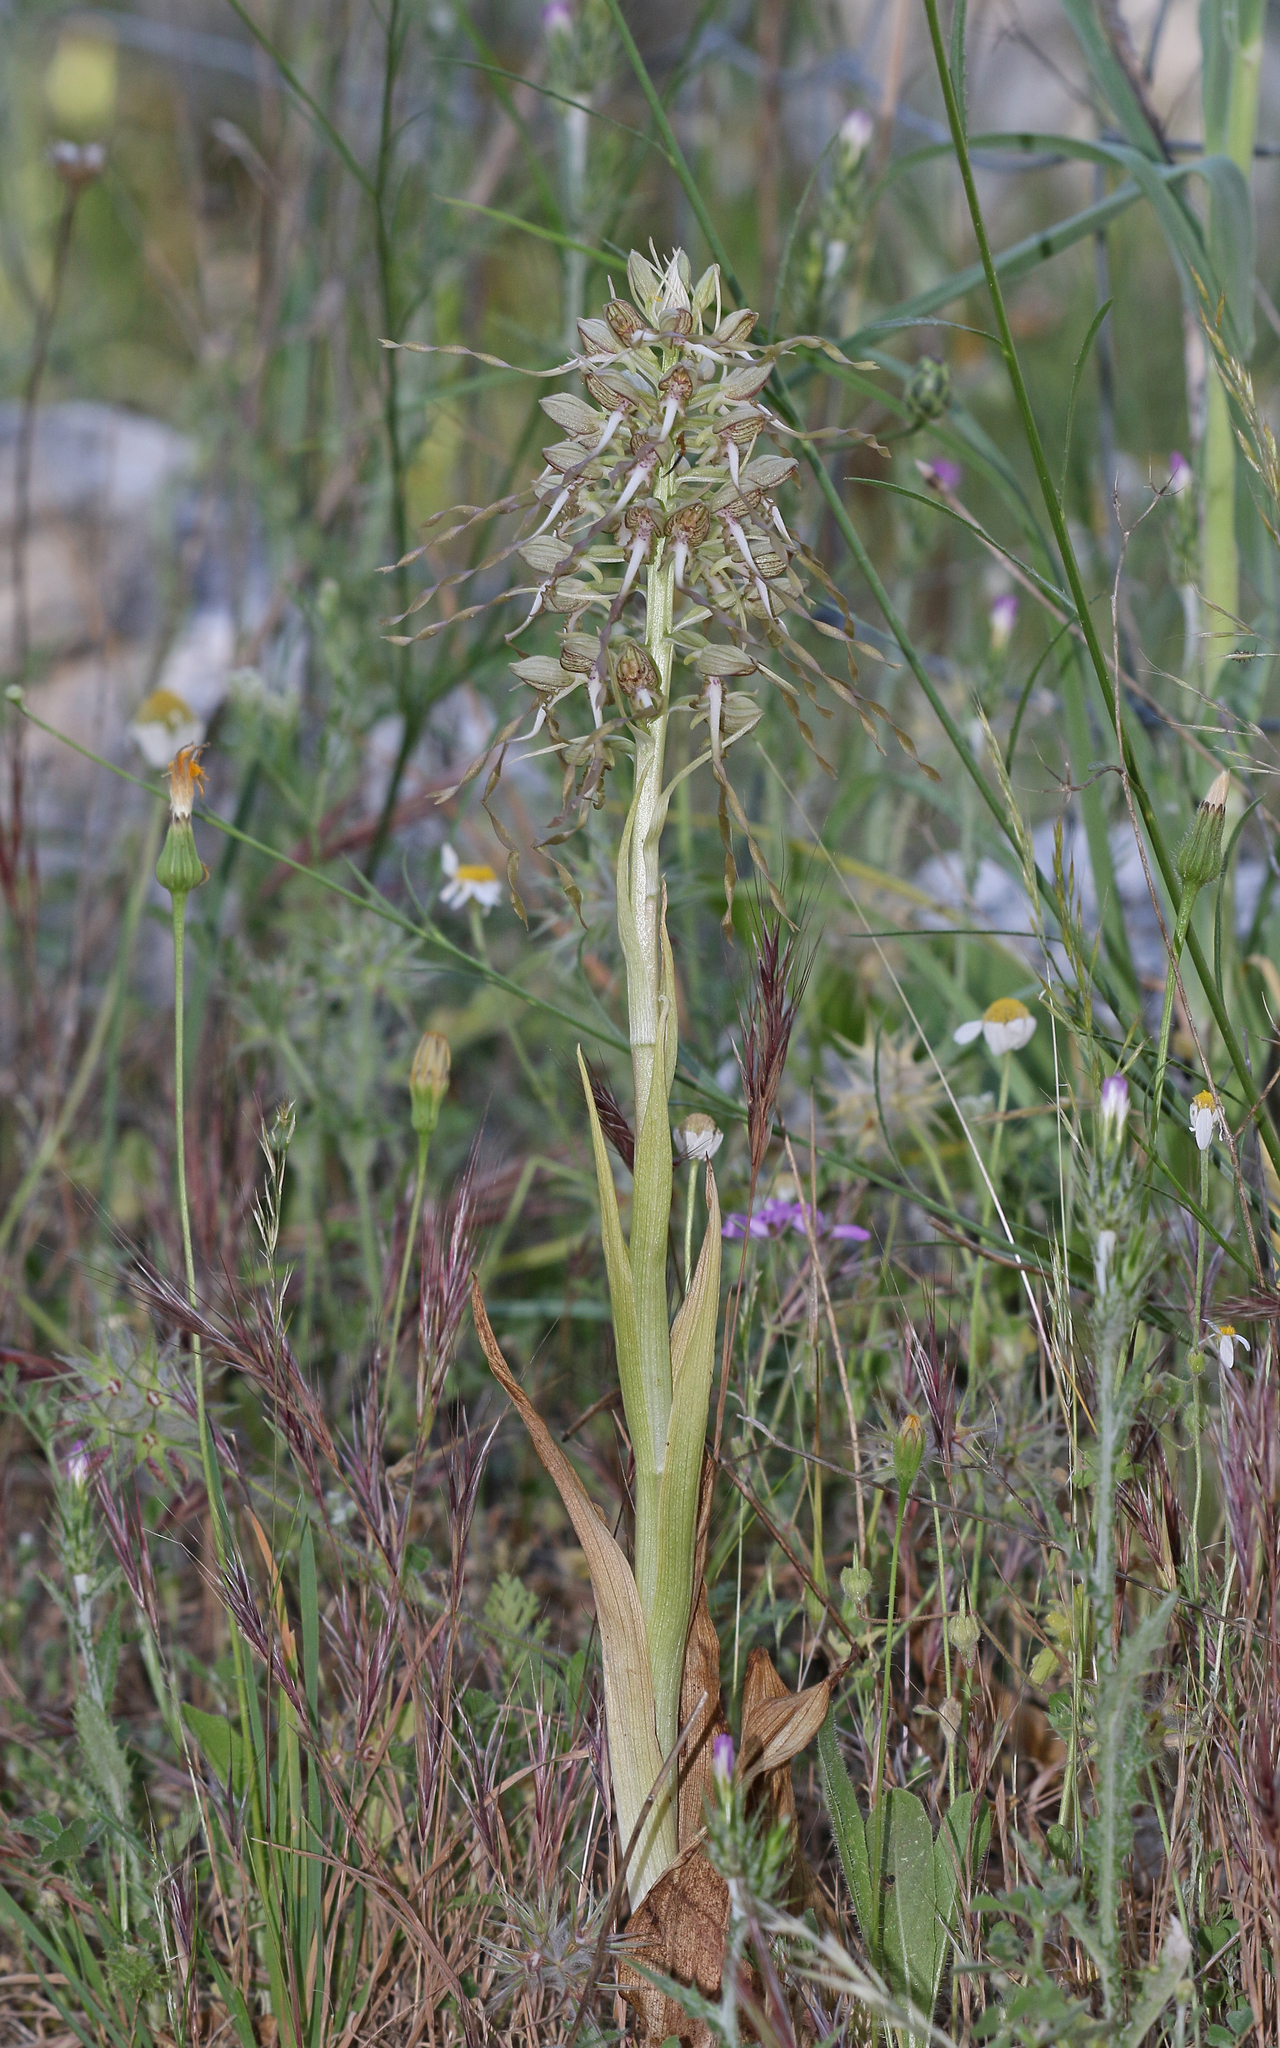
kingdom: Plantae
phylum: Tracheophyta
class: Liliopsida
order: Asparagales
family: Orchidaceae
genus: Himantoglossum
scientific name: Himantoglossum hircinum
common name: Lizard orchid
